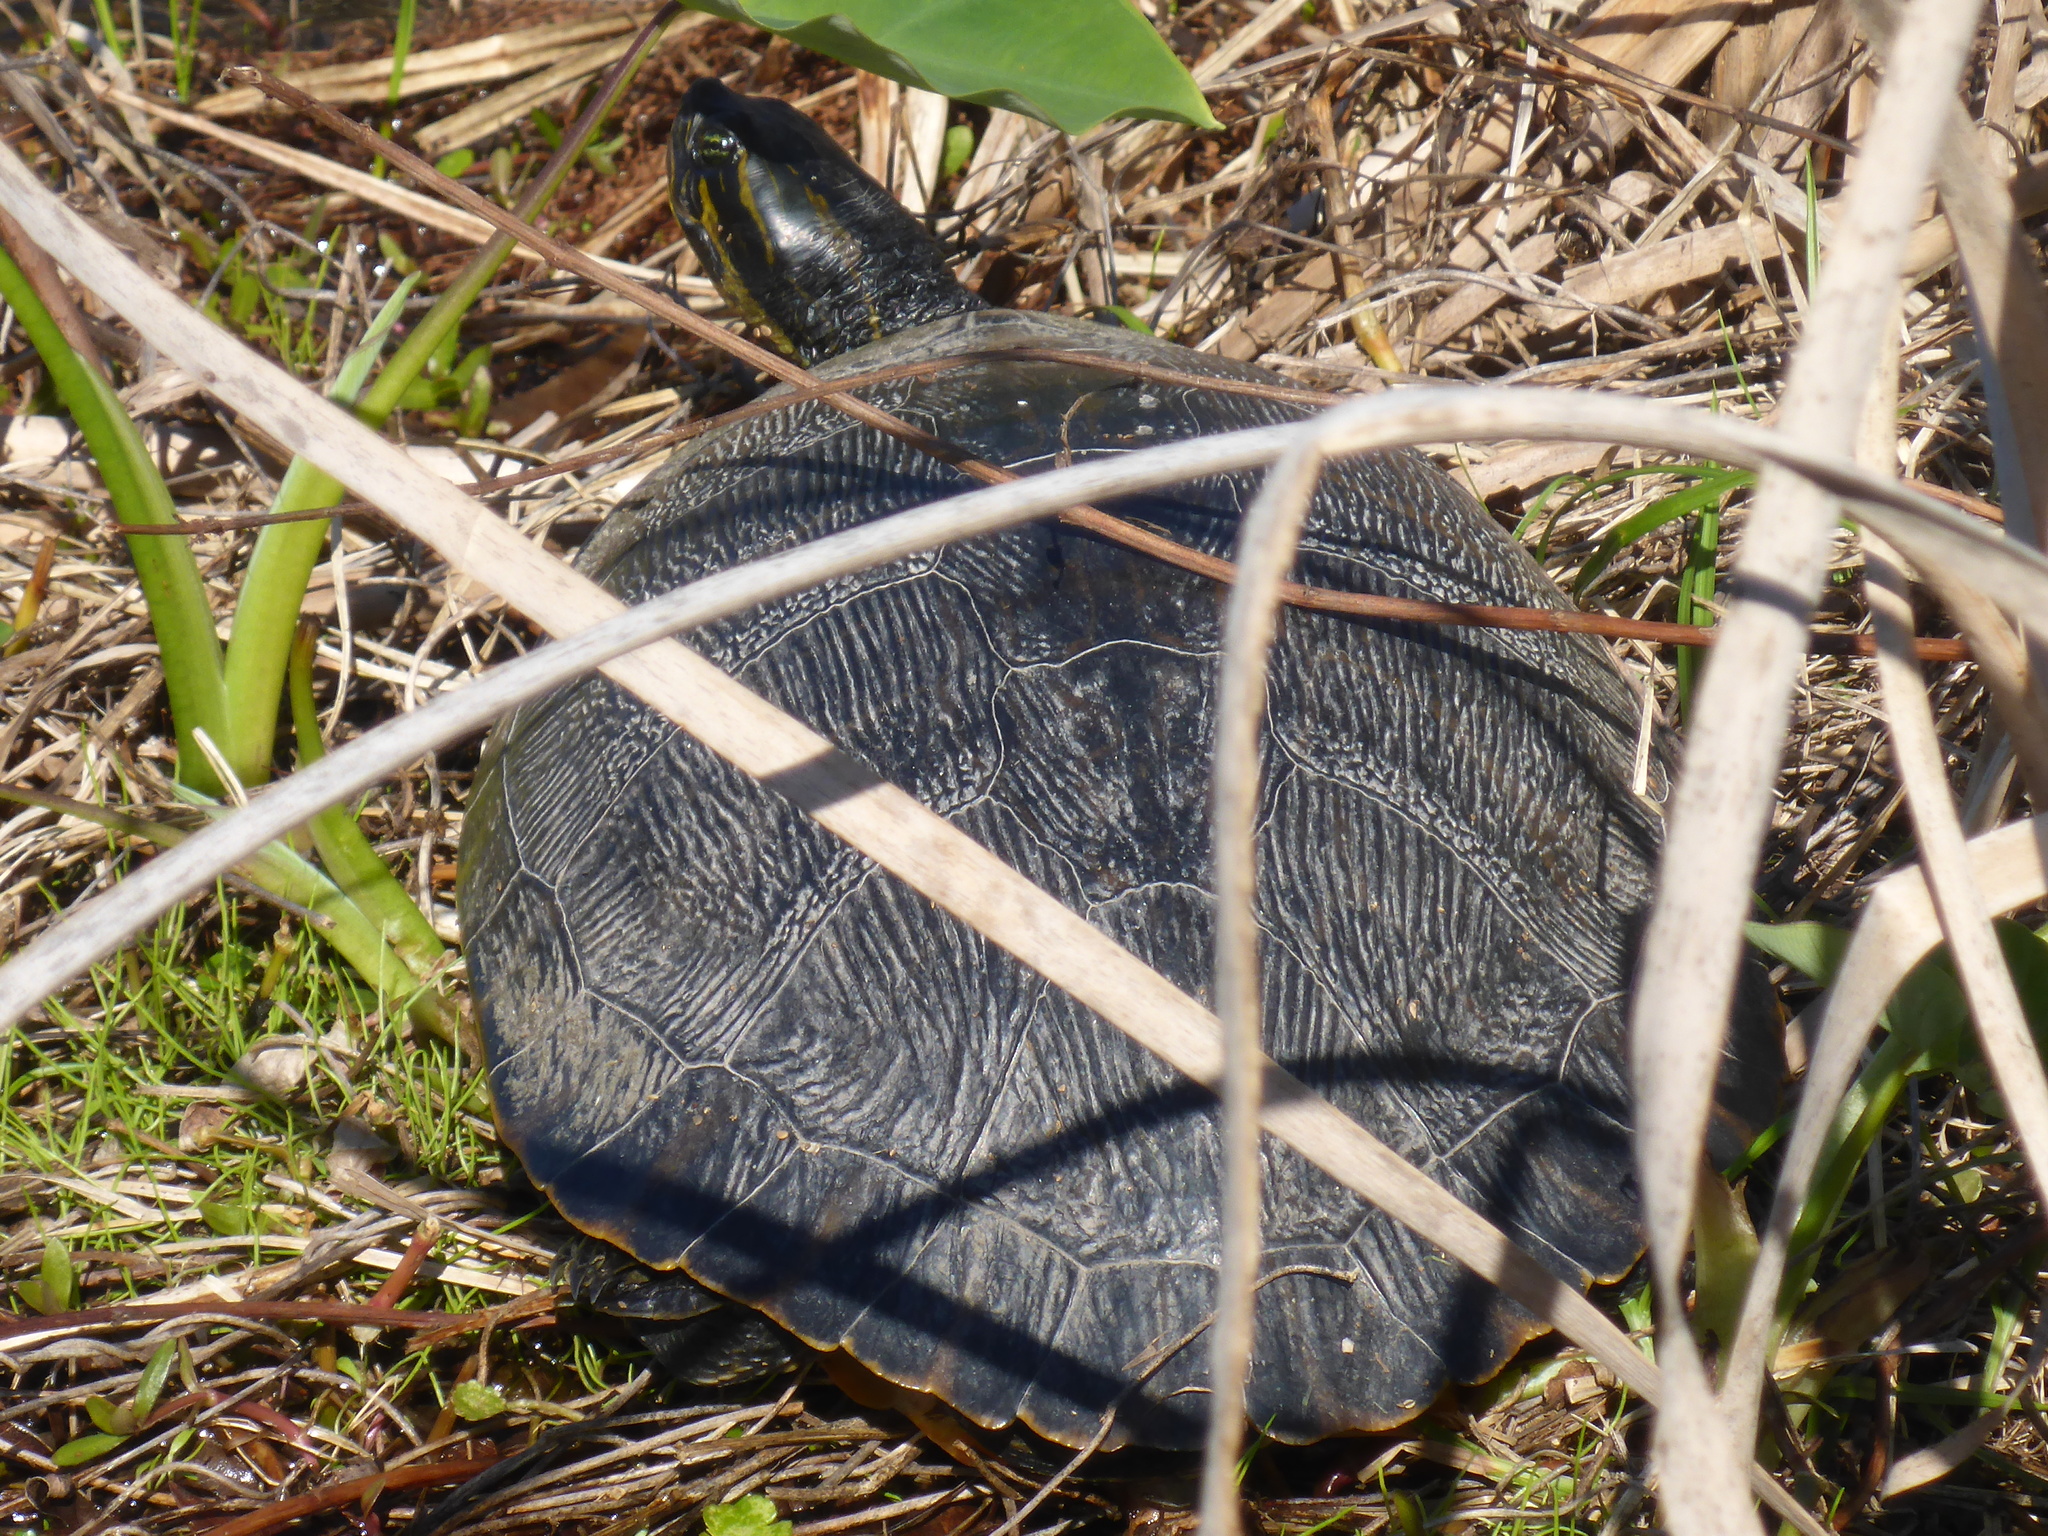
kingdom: Animalia
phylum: Chordata
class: Testudines
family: Emydidae
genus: Pseudemys
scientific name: Pseudemys concinna
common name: Eastern river cooter
